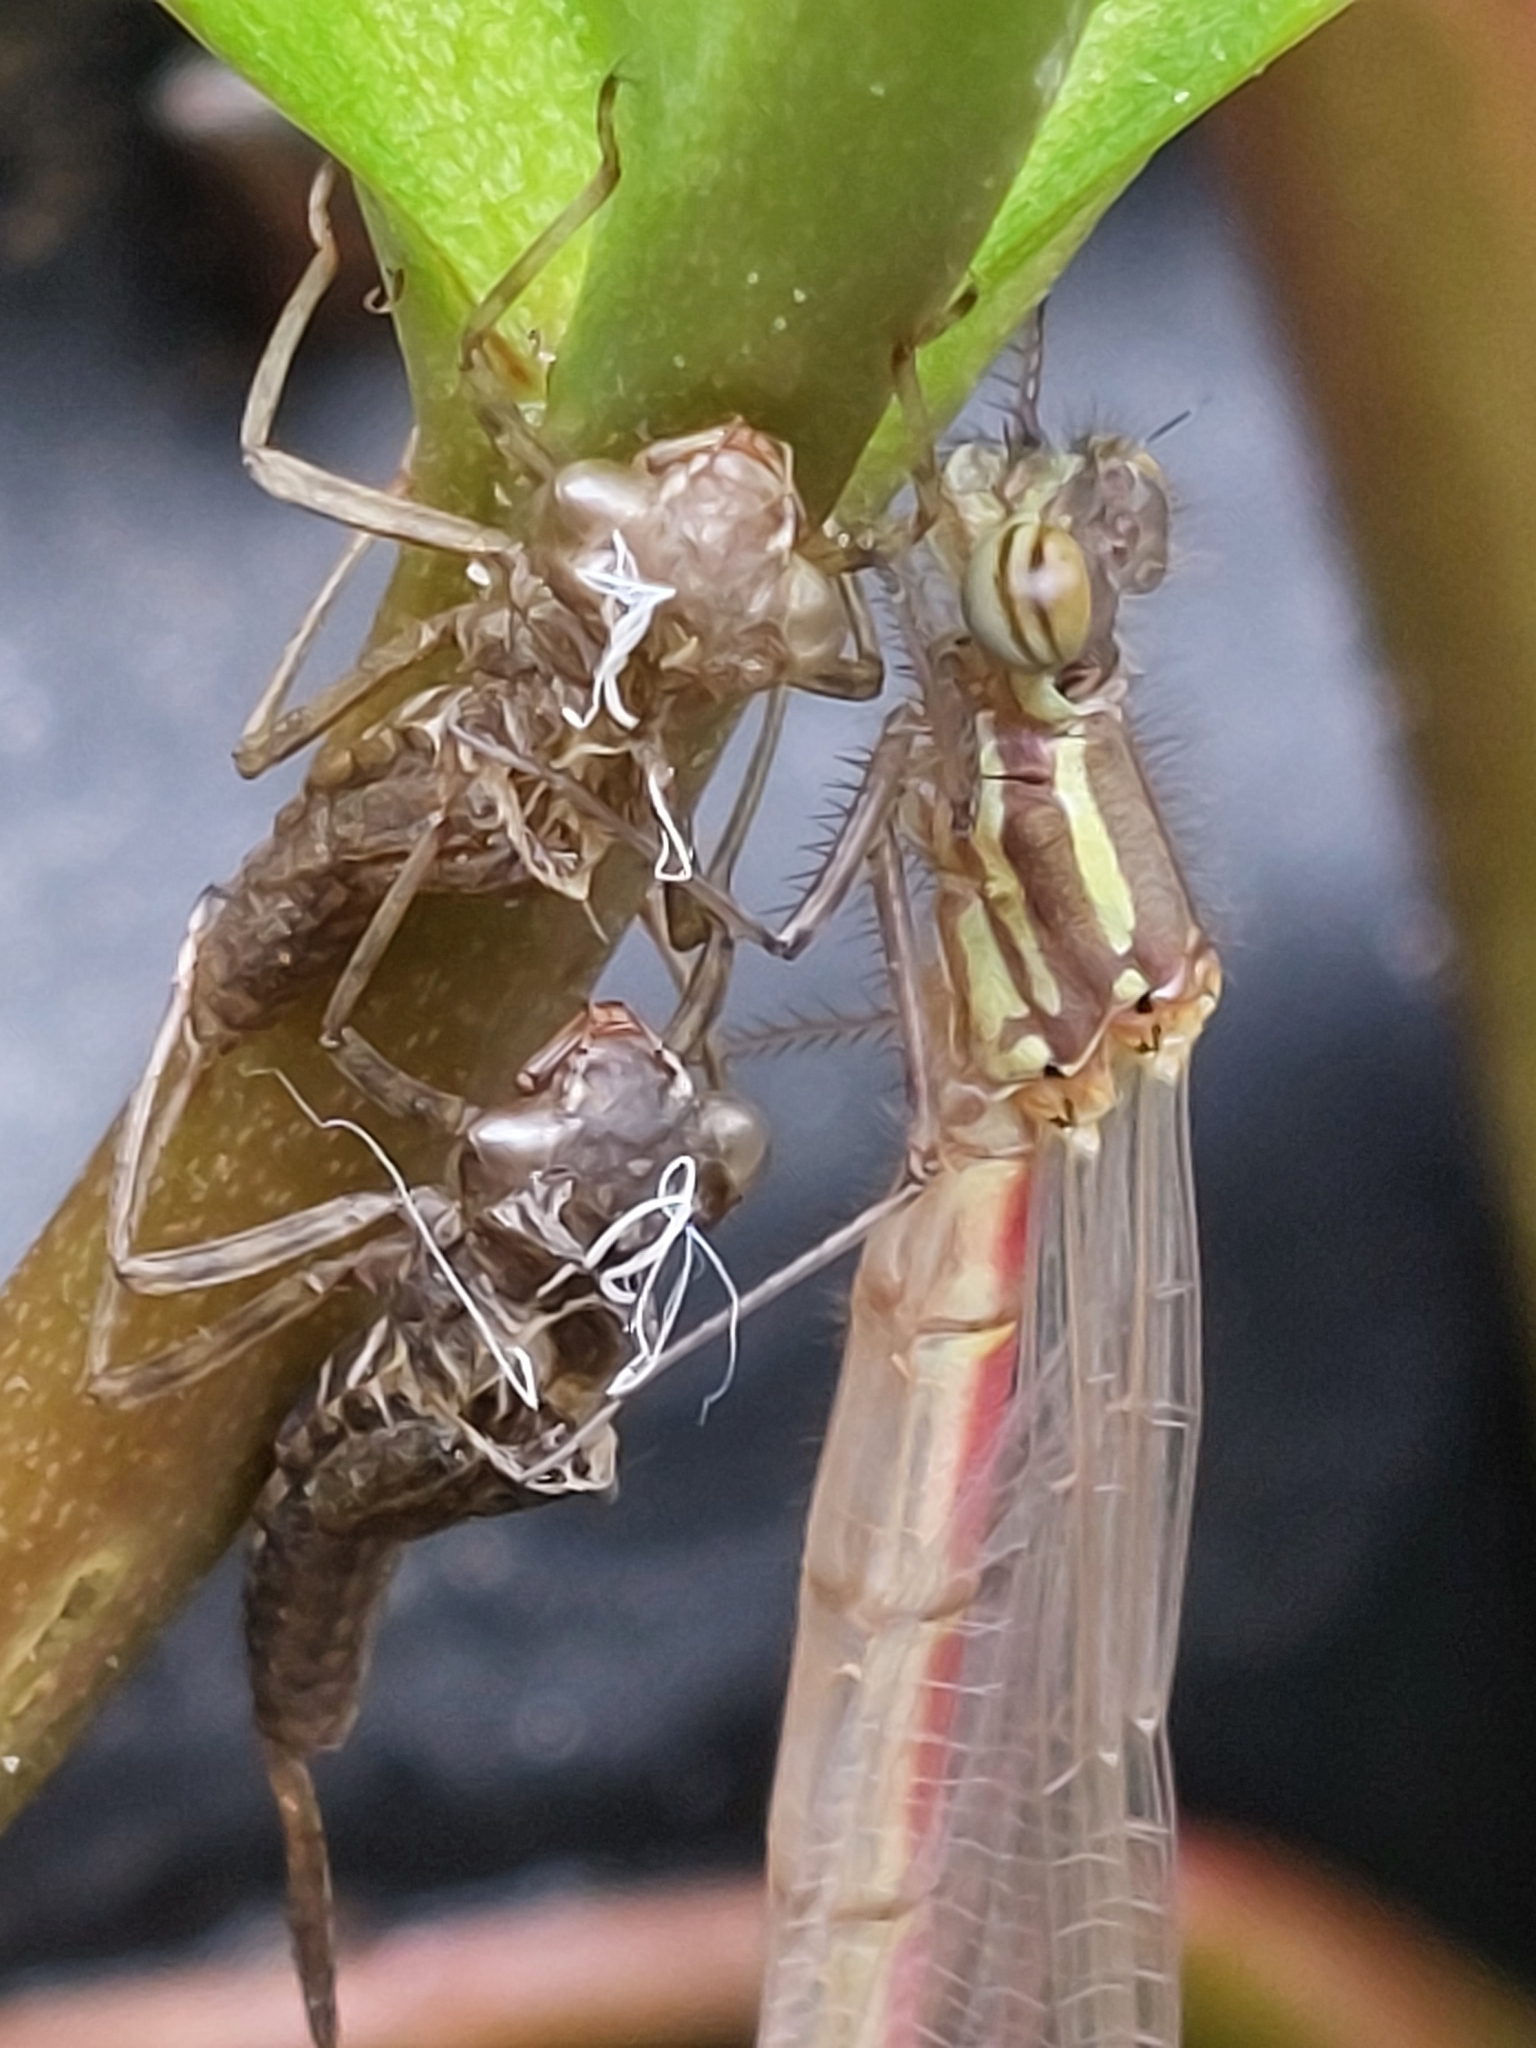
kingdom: Animalia
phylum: Arthropoda
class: Insecta
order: Odonata
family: Coenagrionidae
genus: Pyrrhosoma
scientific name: Pyrrhosoma nymphula
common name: Large red damsel
